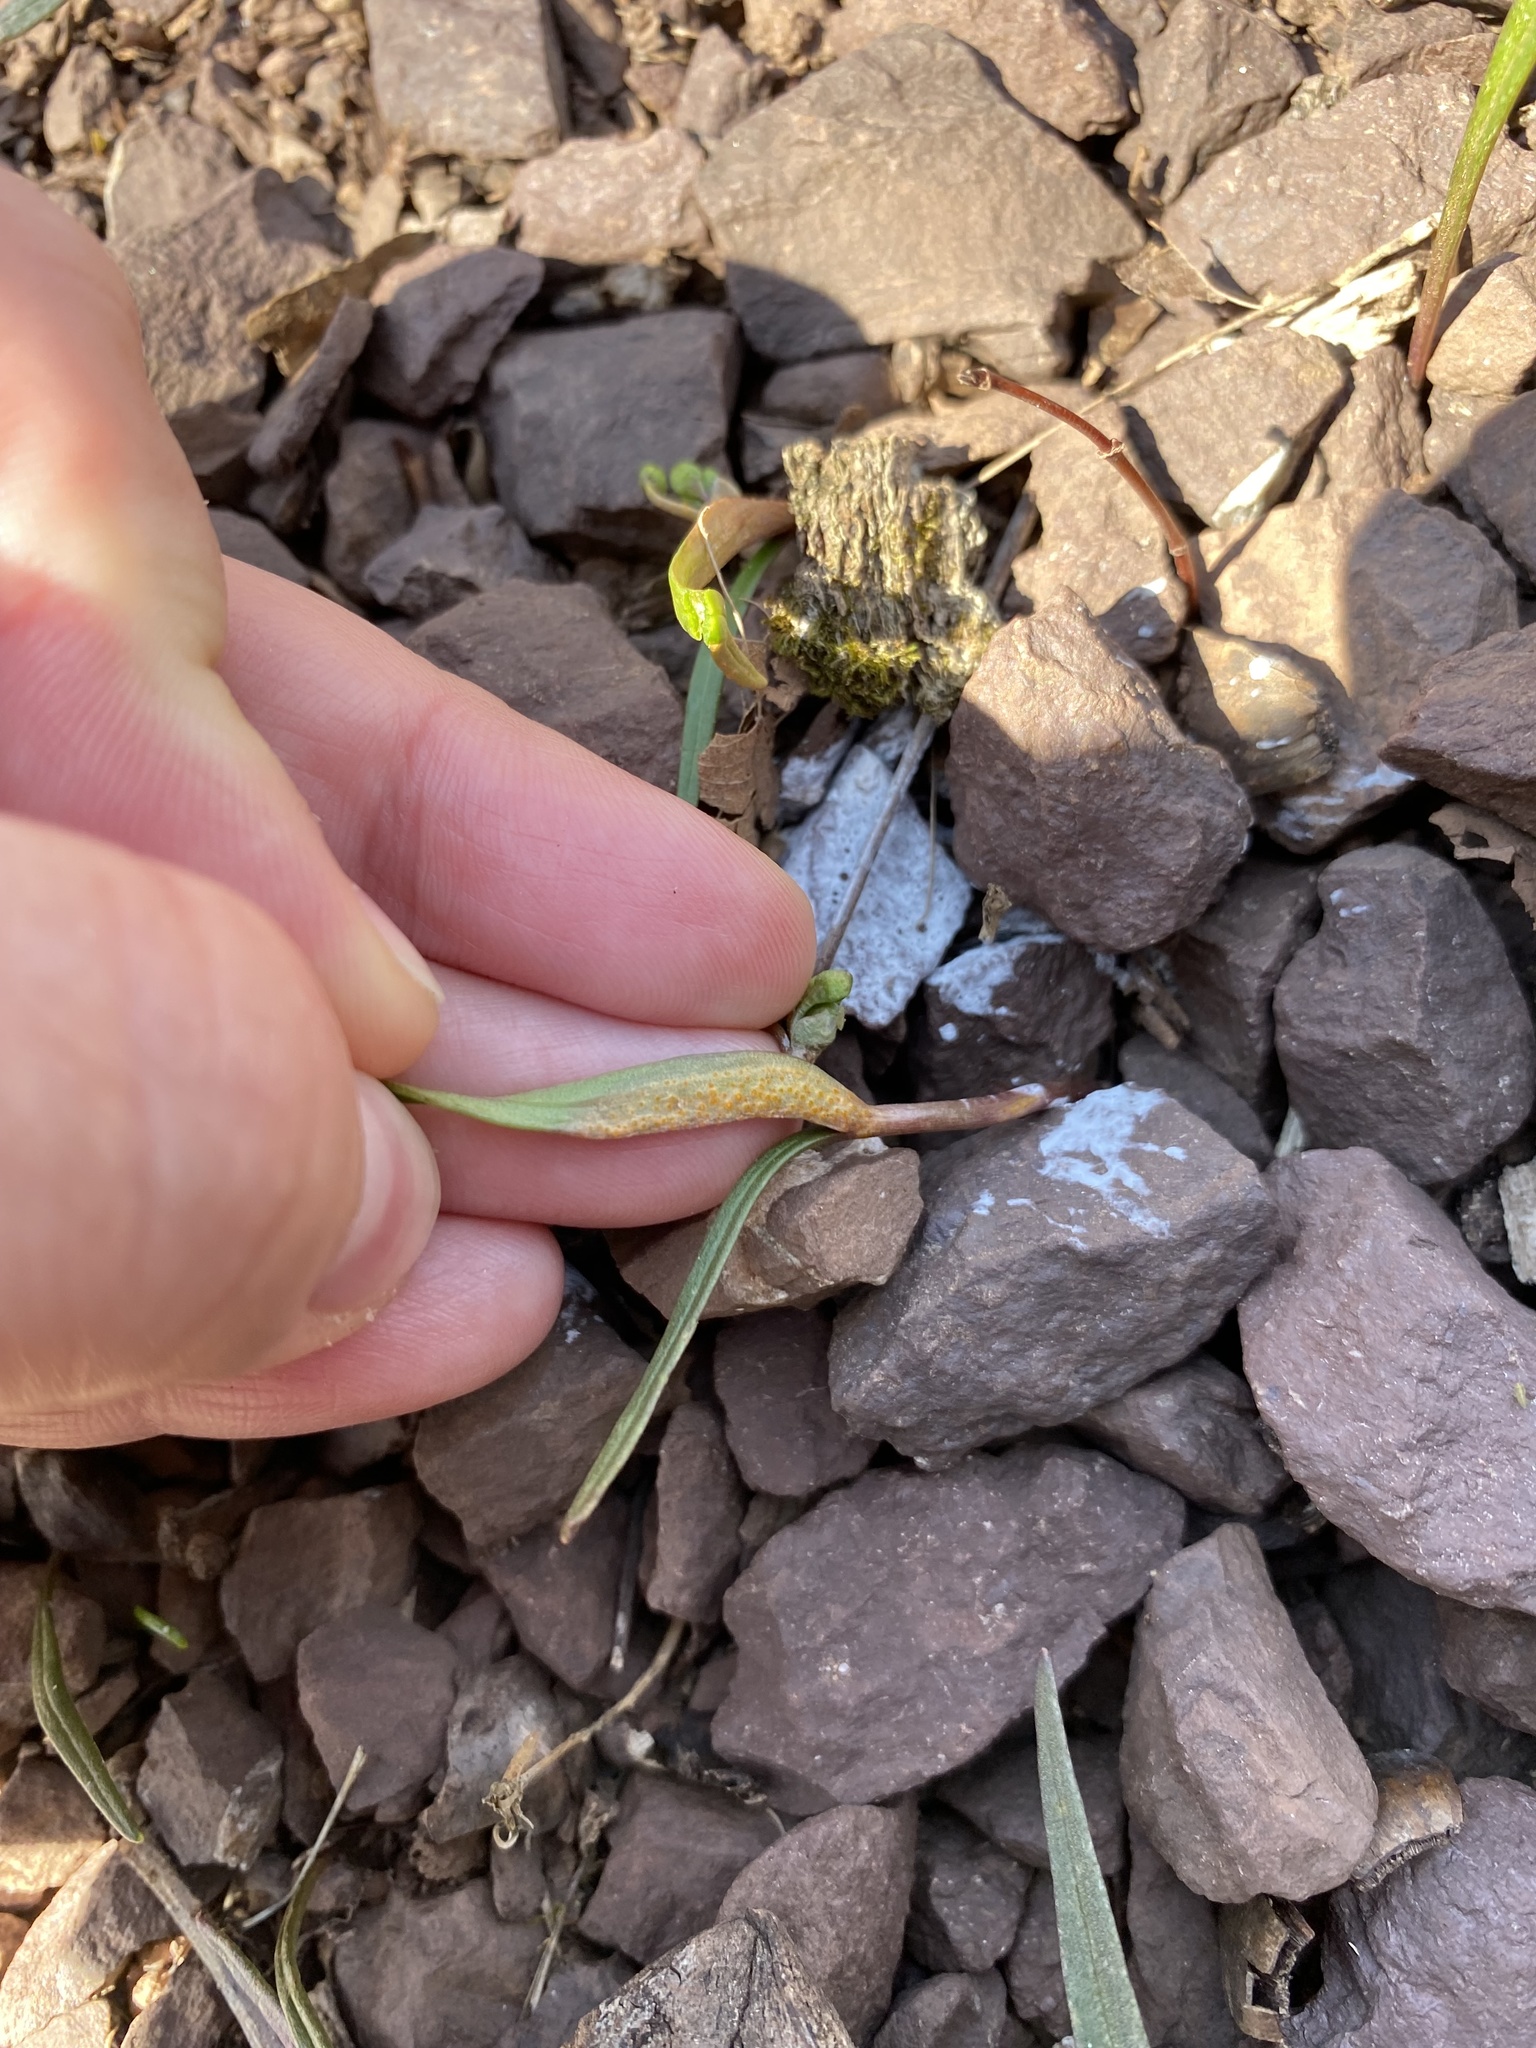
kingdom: Fungi
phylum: Basidiomycota
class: Pucciniomycetes
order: Pucciniales
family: Pucciniaceae
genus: Puccinia
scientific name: Puccinia mariae-wilsoniae
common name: Spring beauty rust
